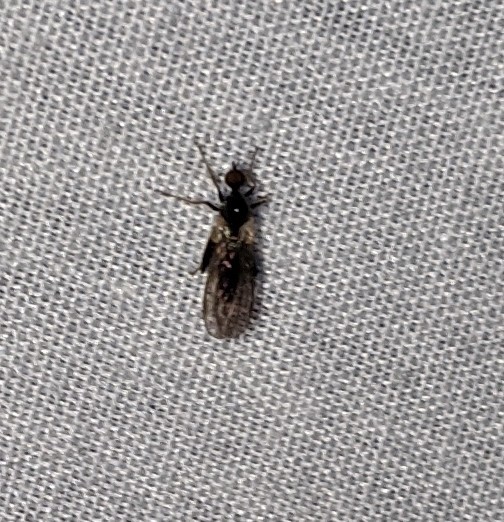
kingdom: Animalia
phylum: Arthropoda
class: Insecta
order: Diptera
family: Hybotidae
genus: Hybos
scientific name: Hybos reversus
